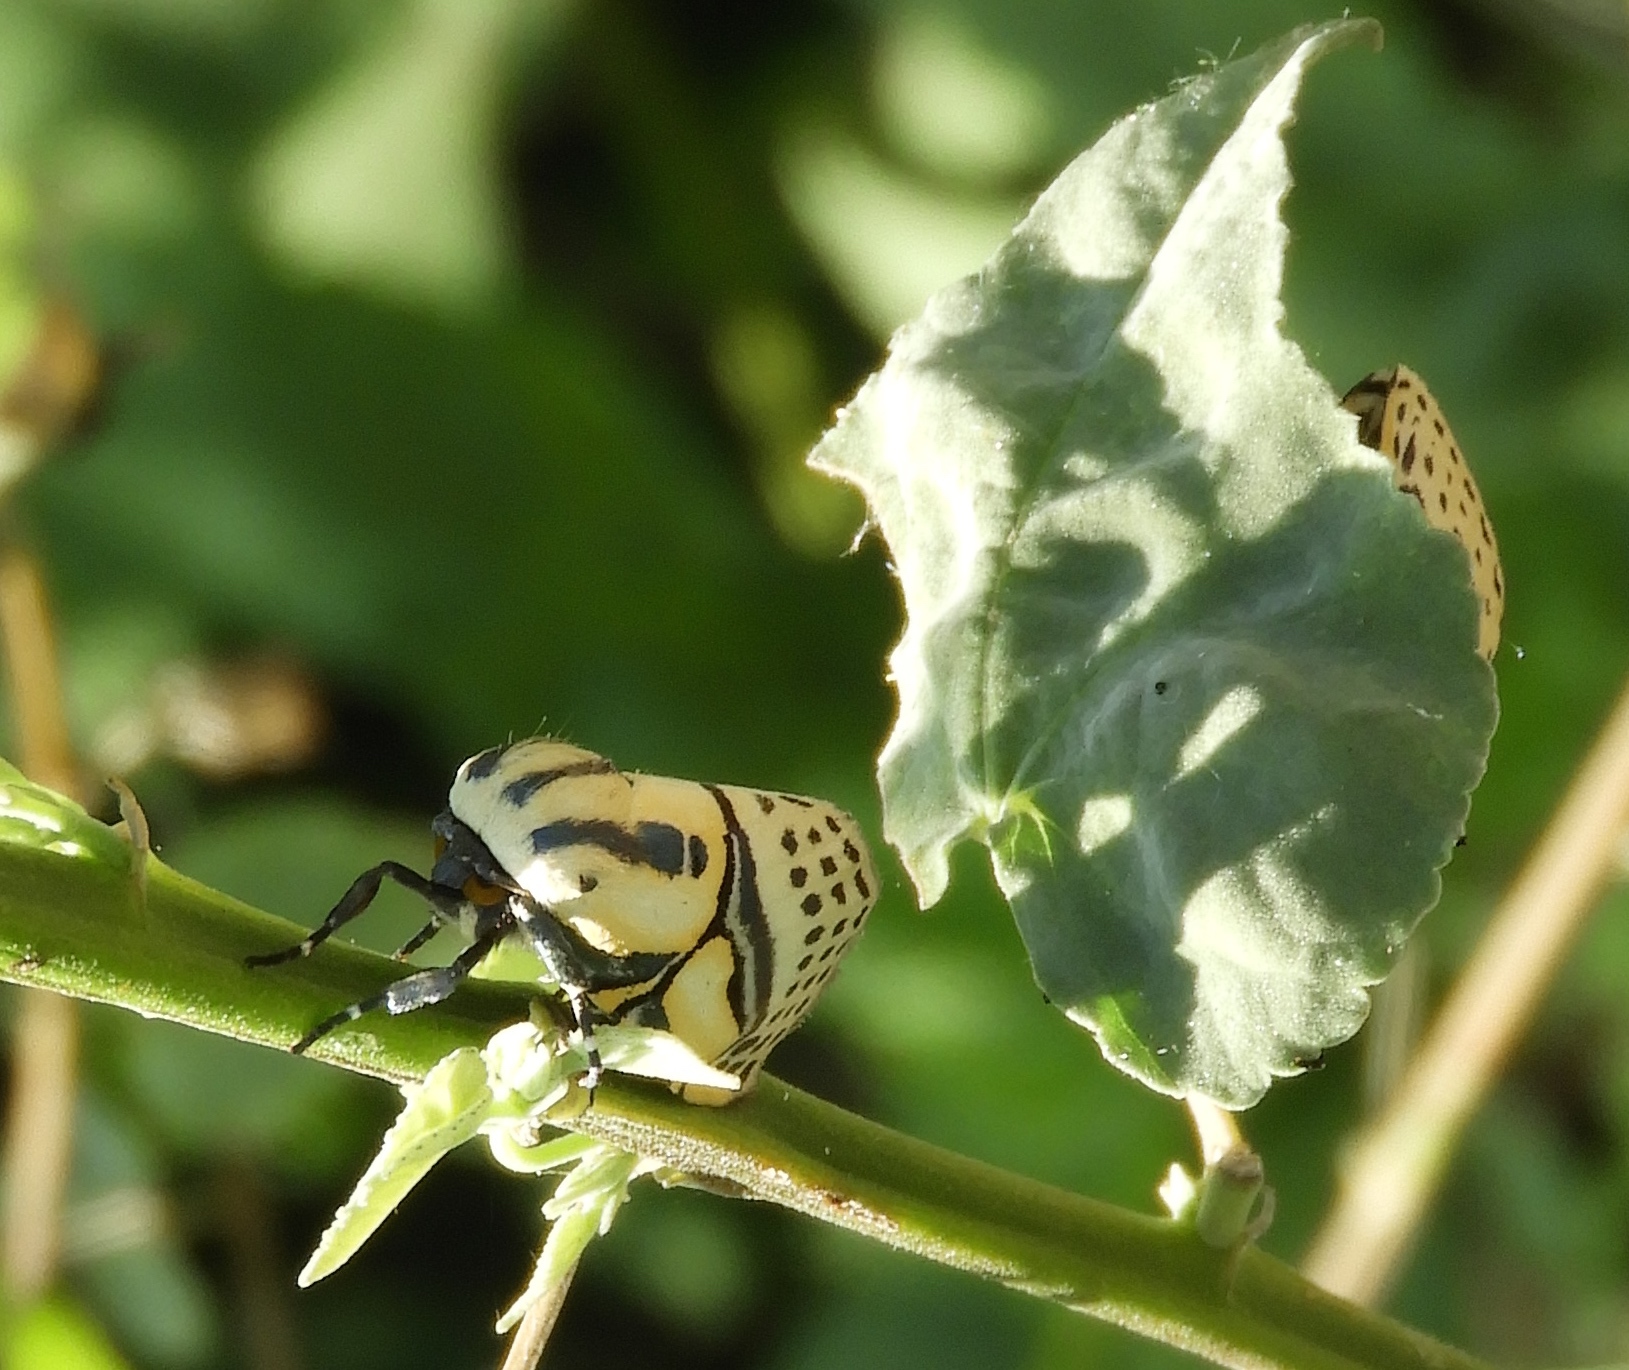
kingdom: Animalia
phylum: Arthropoda
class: Insecta
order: Lepidoptera
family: Erebidae
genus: Diphthera
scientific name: Diphthera festiva
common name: Hieroglyphic moth
